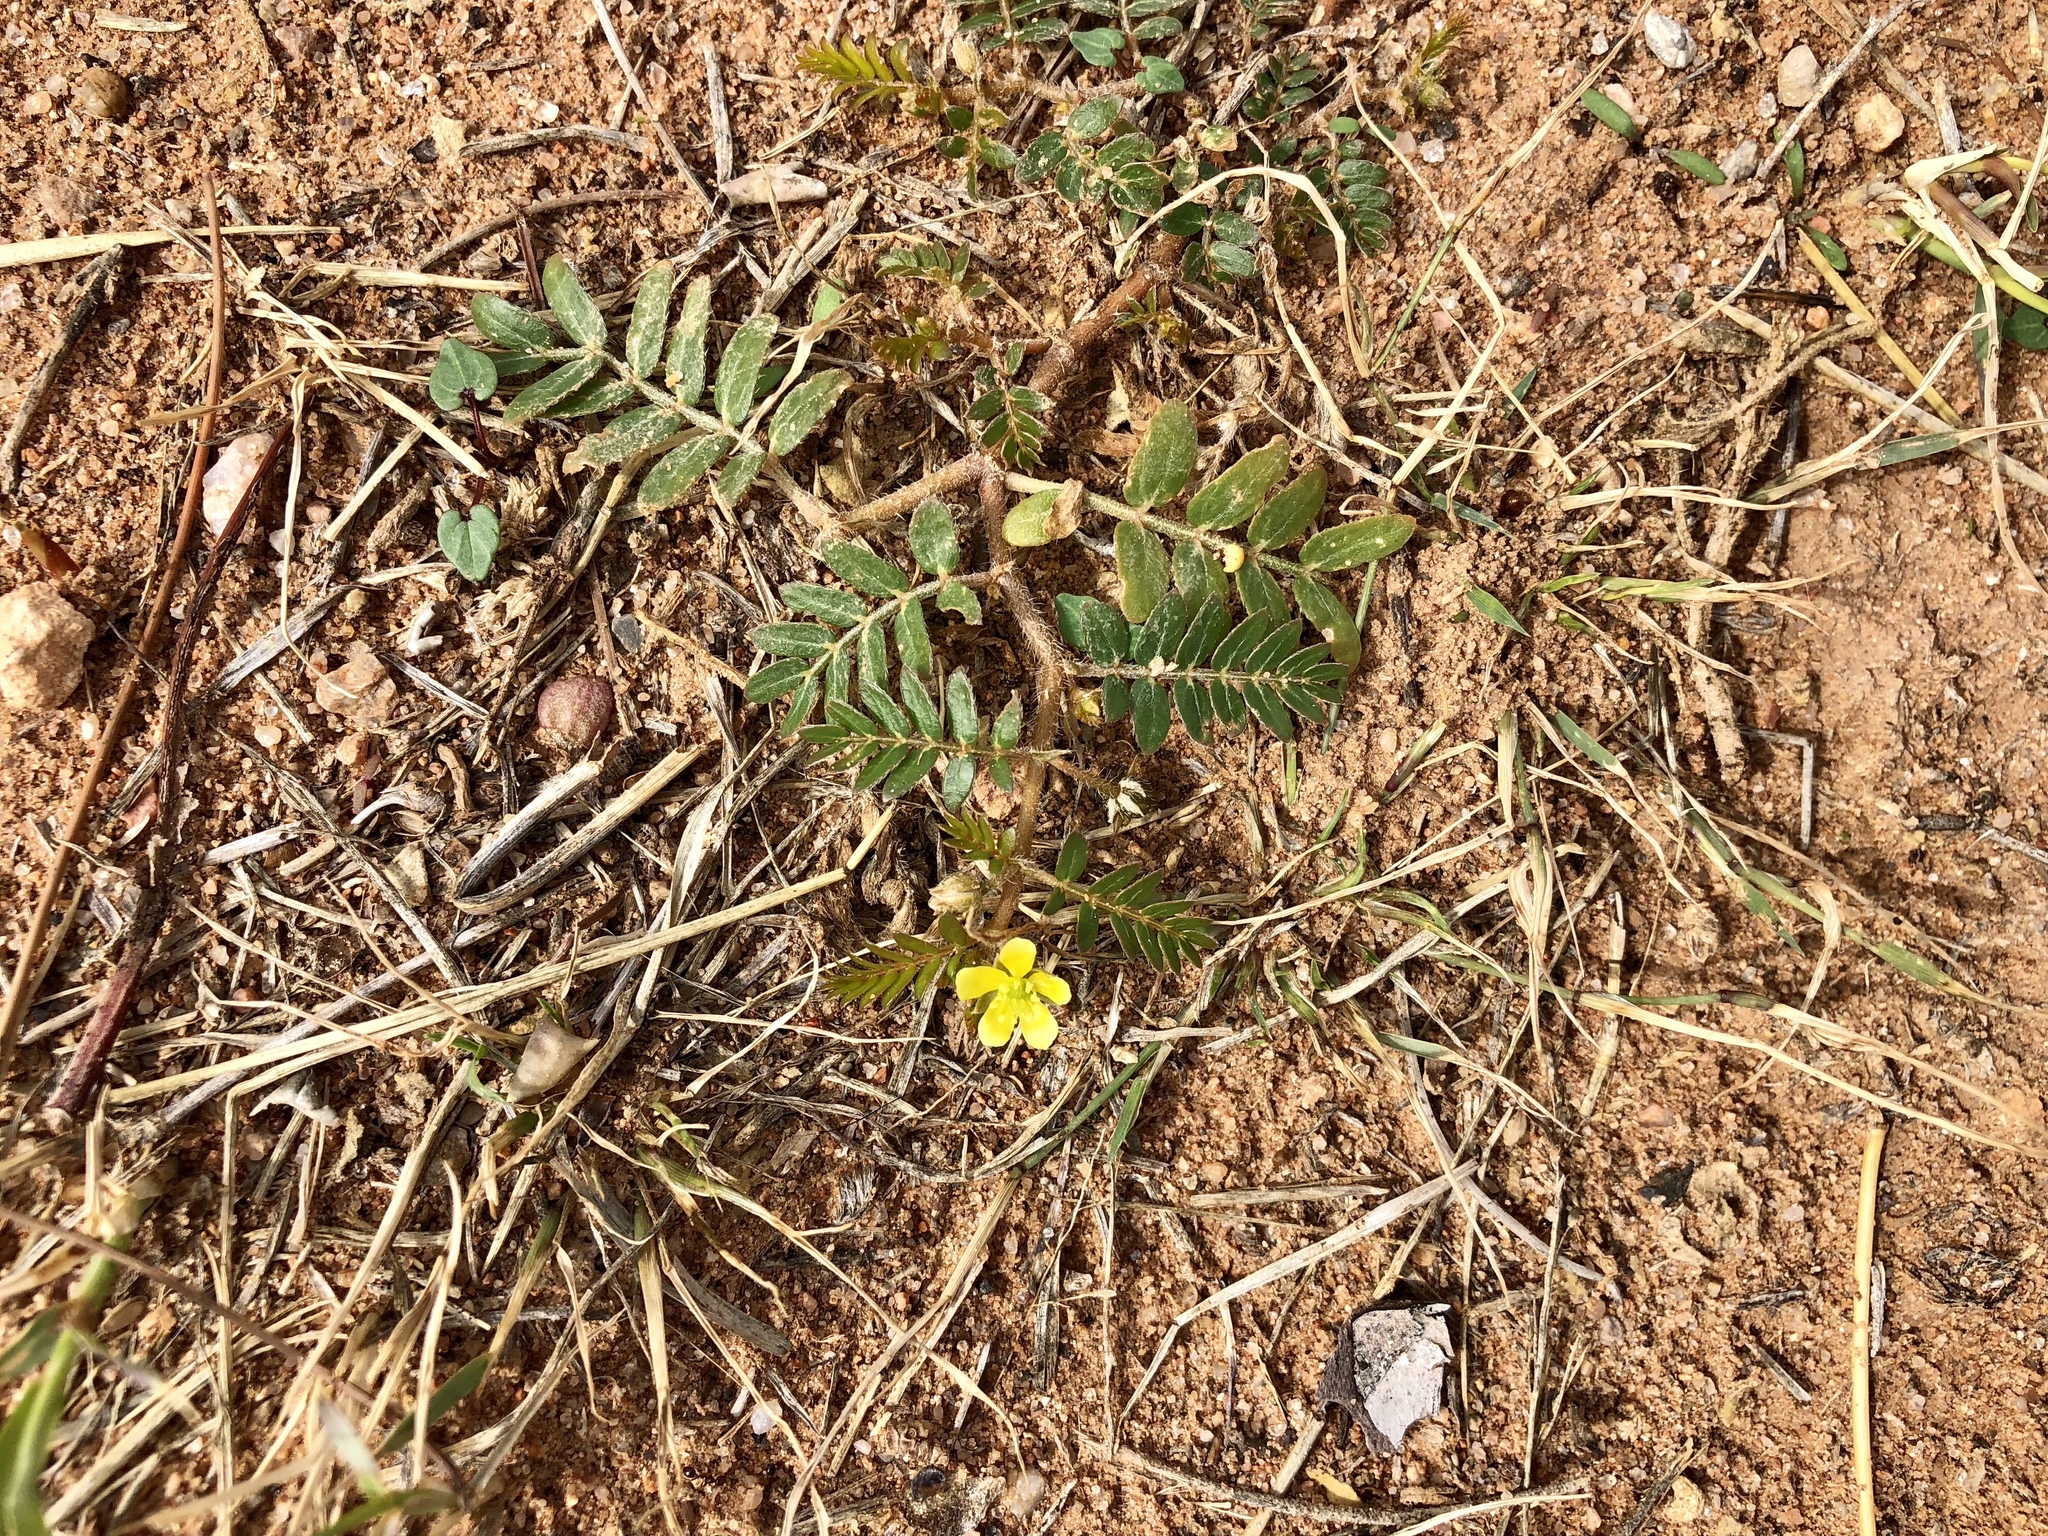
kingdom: Plantae
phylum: Tracheophyta
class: Magnoliopsida
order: Zygophyllales
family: Zygophyllaceae
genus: Tribulus
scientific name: Tribulus terrestris
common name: Puncturevine
